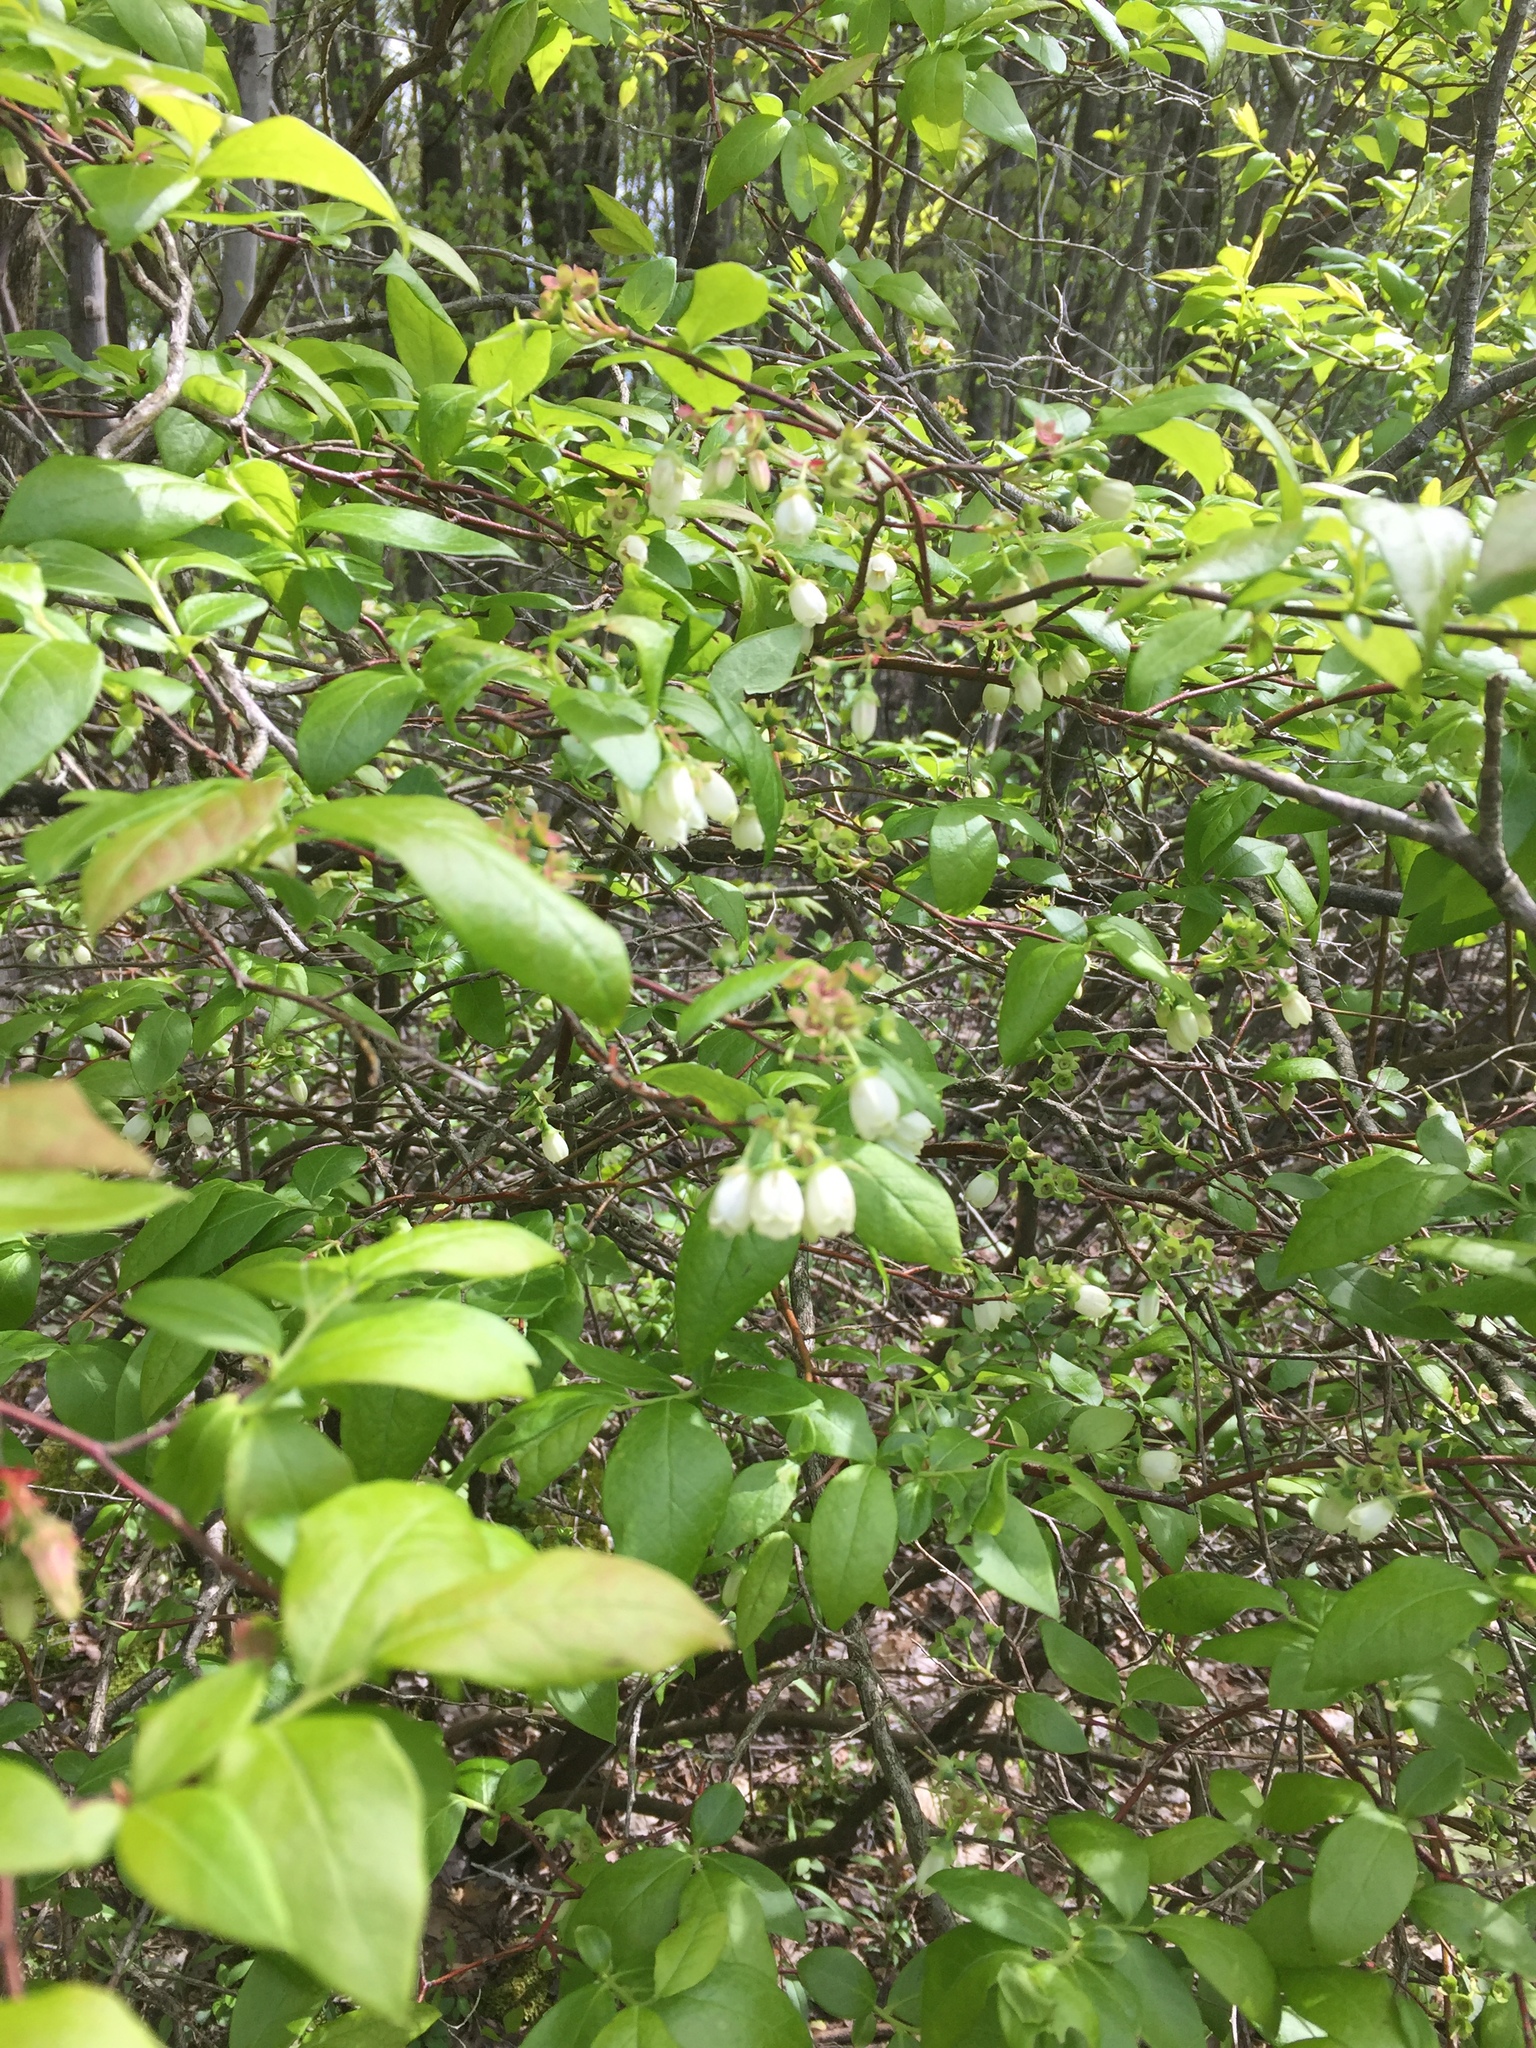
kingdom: Plantae
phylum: Tracheophyta
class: Magnoliopsida
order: Ericales
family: Ericaceae
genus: Vaccinium
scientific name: Vaccinium corymbosum
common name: Blueberry
